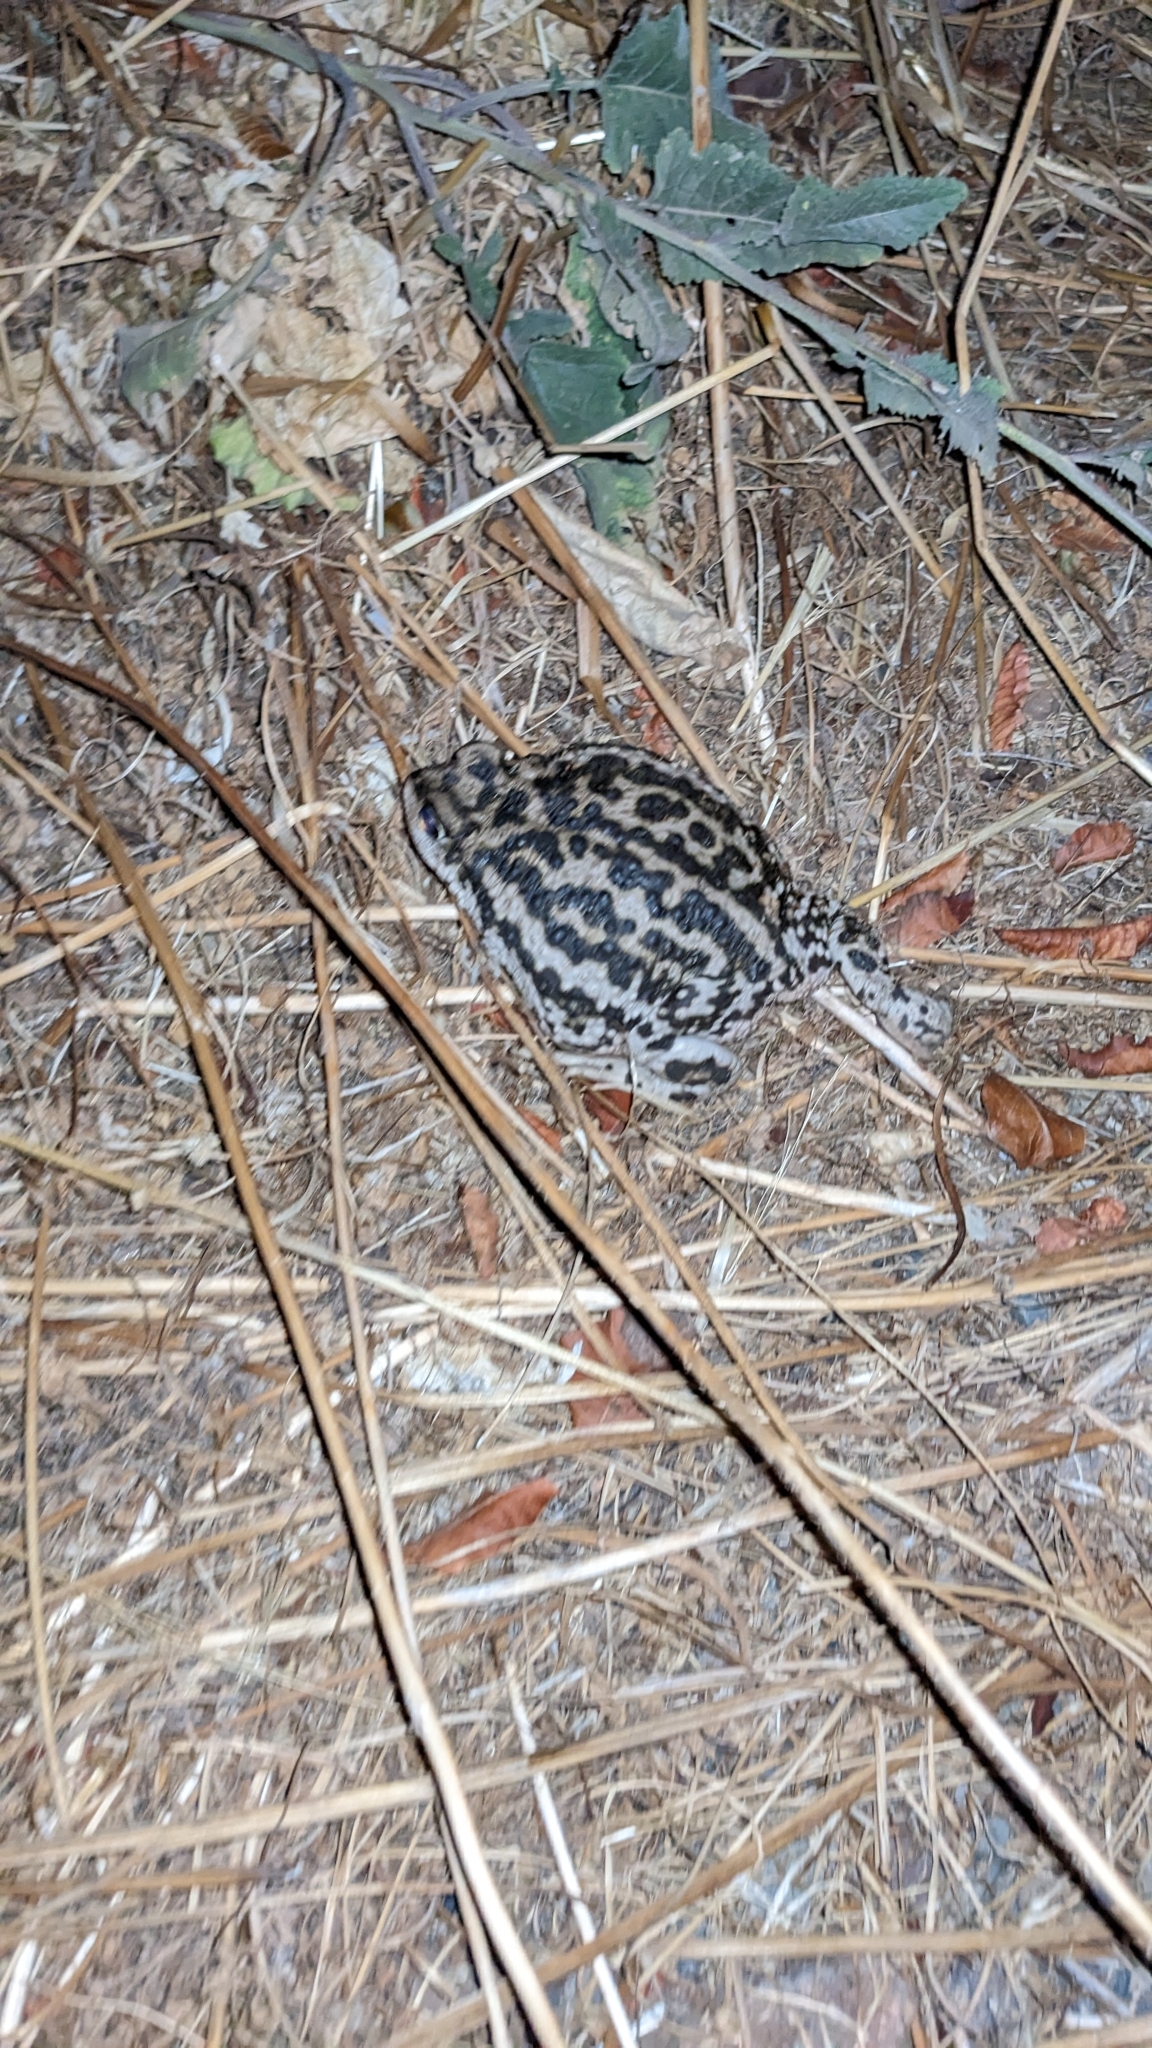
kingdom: Animalia
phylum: Chordata
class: Amphibia
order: Anura
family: Bufonidae
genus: Rhinella
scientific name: Rhinella arunco
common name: Concepcion toad
